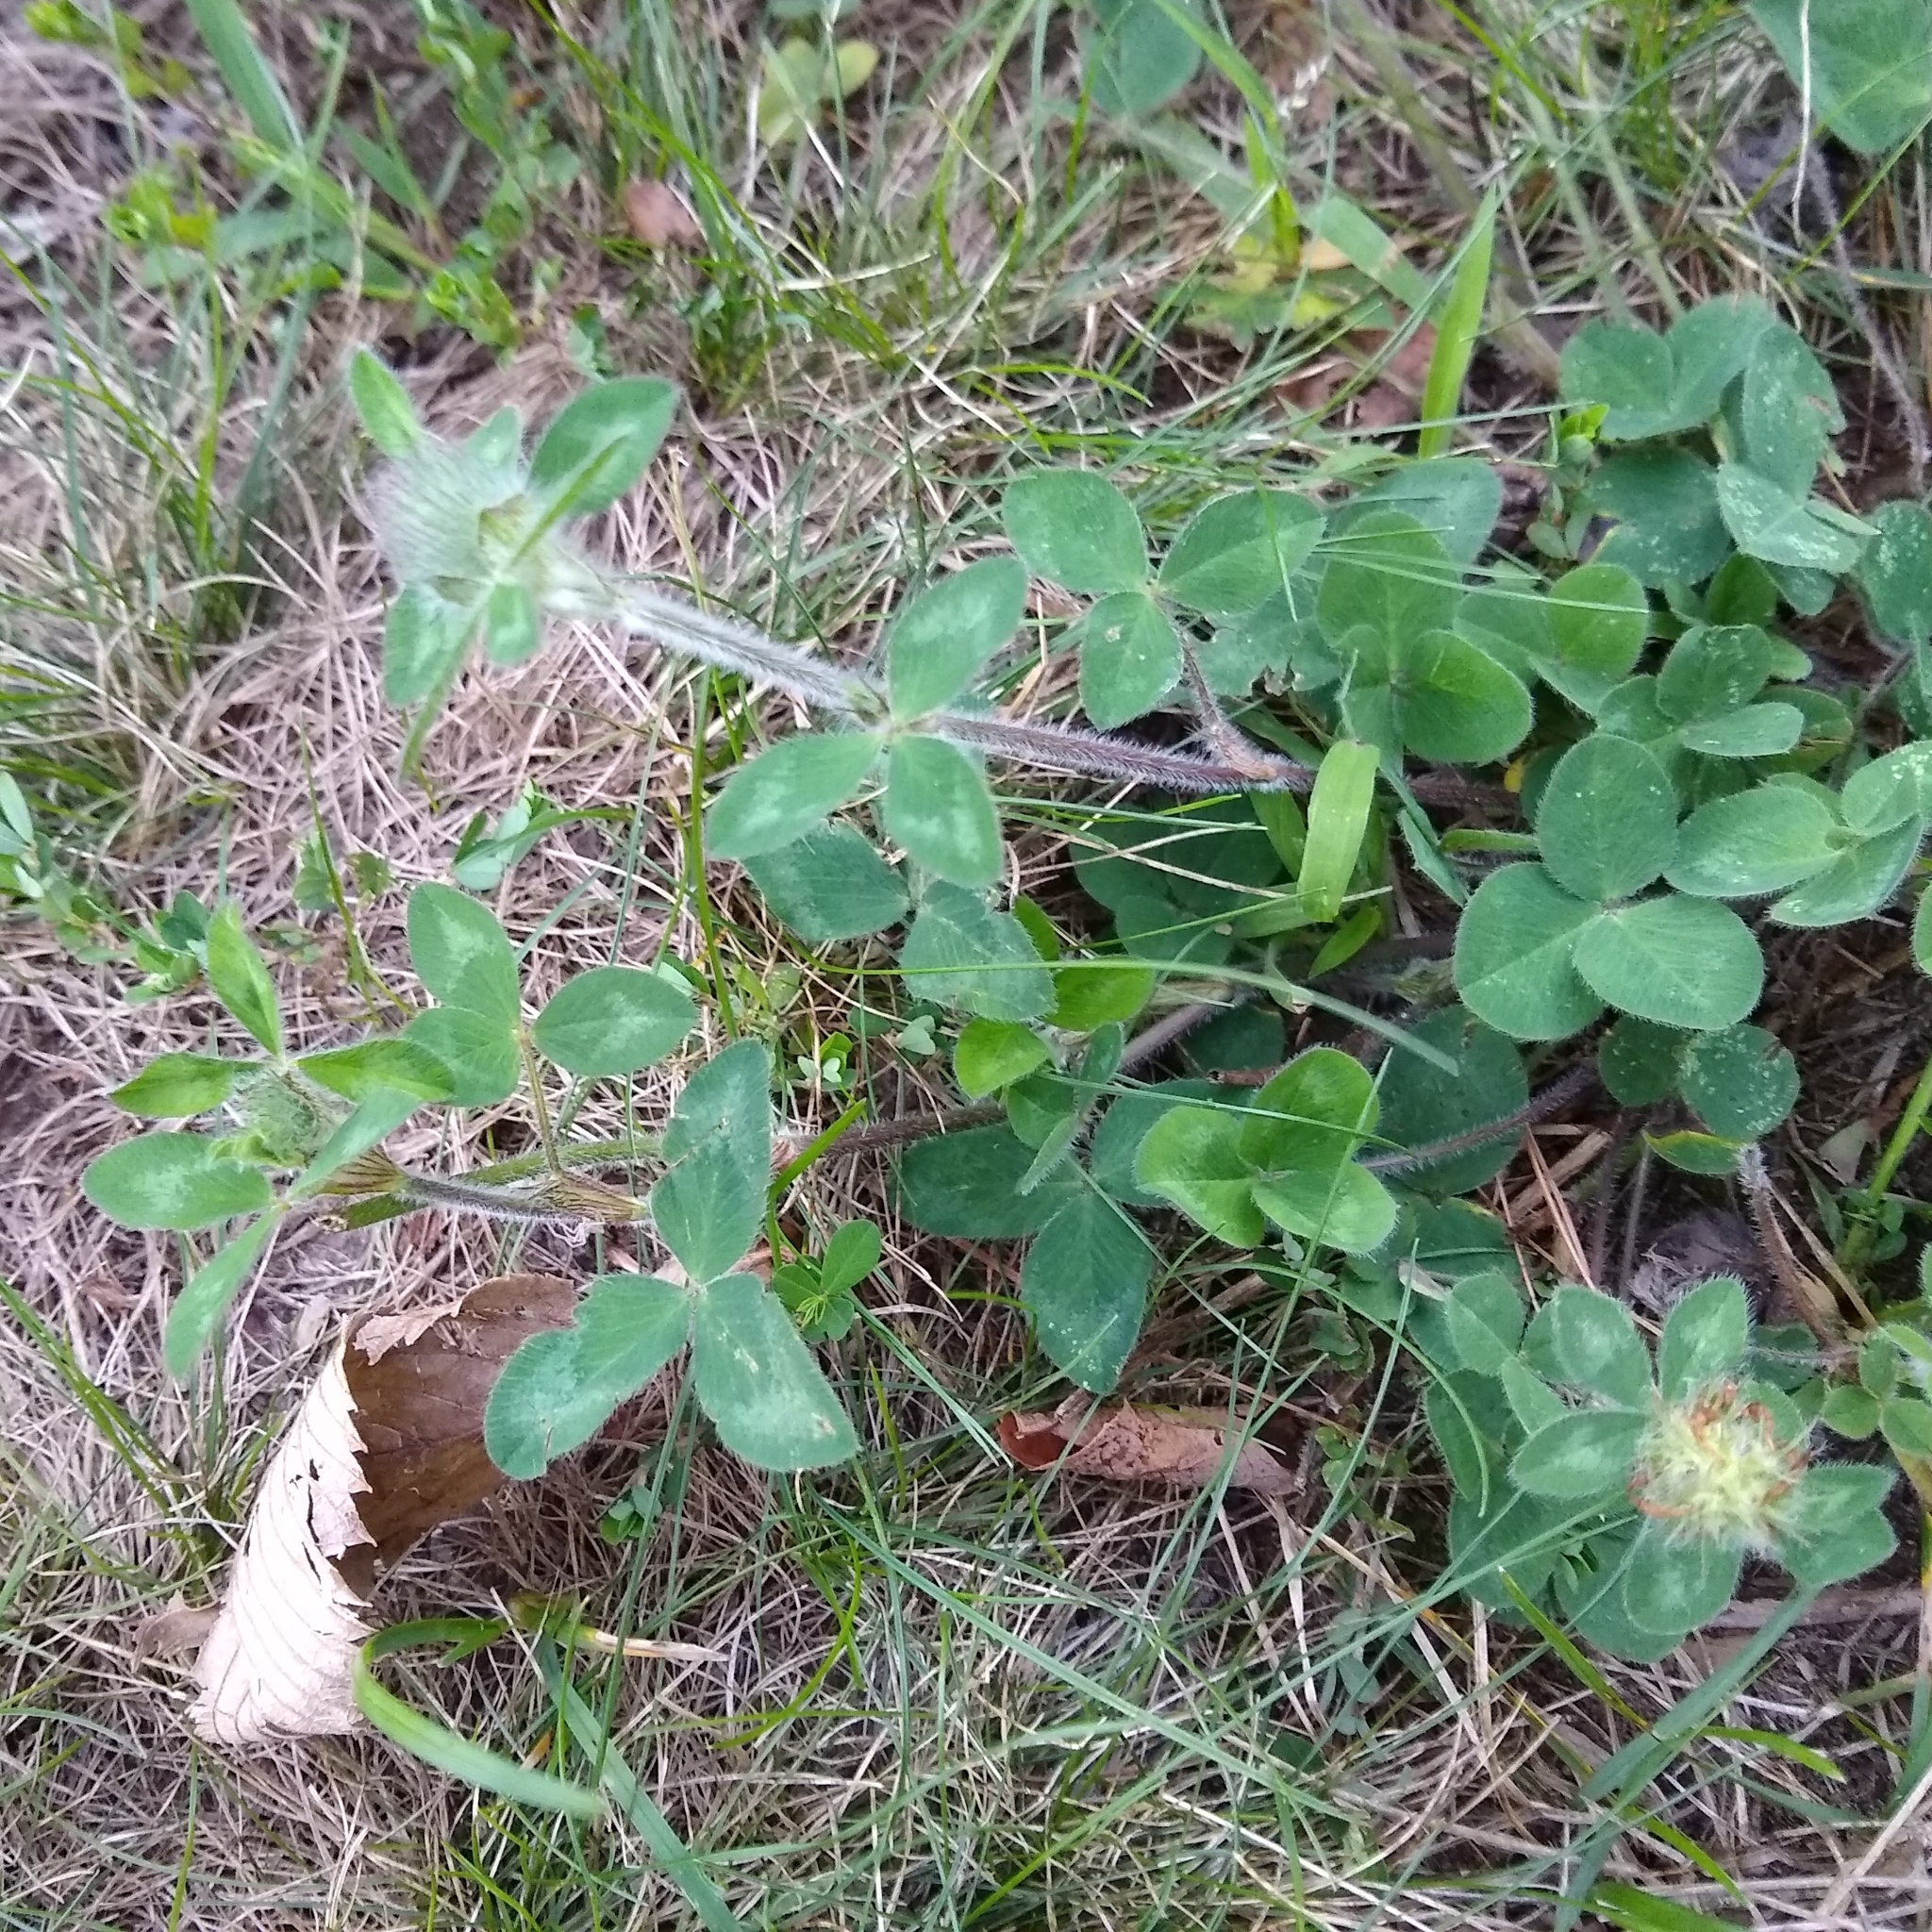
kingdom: Plantae
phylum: Tracheophyta
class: Magnoliopsida
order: Fabales
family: Fabaceae
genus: Trifolium
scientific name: Trifolium pratense
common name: Red clover
